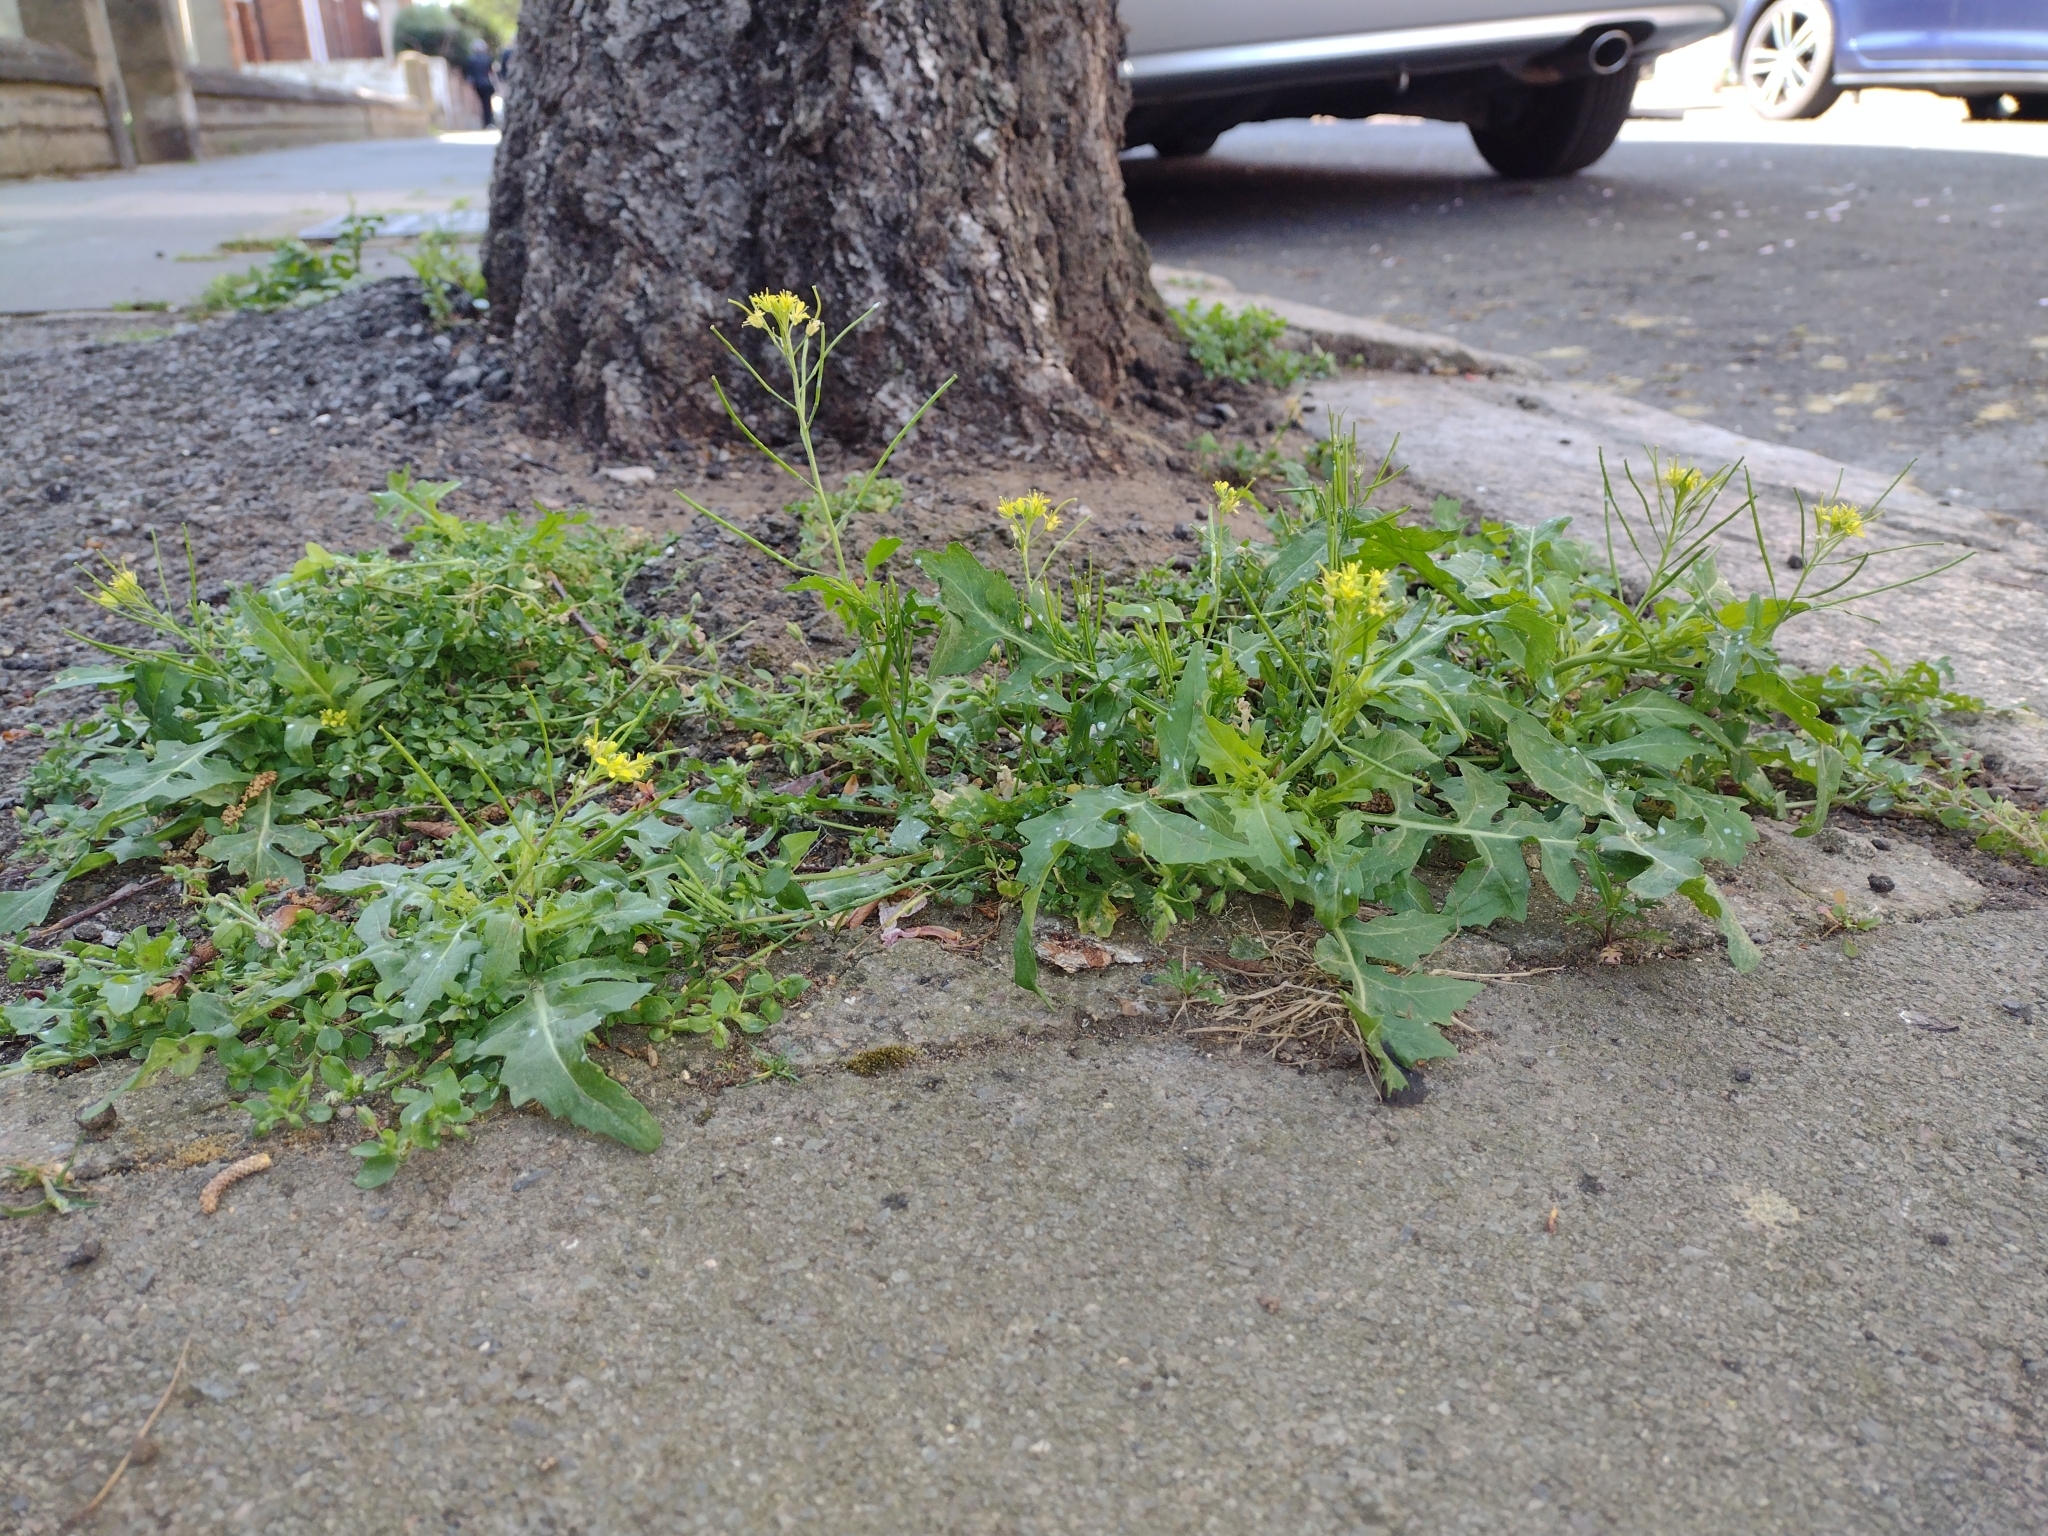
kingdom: Plantae
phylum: Tracheophyta
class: Magnoliopsida
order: Brassicales
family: Brassicaceae
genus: Sisymbrium
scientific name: Sisymbrium irio
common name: London rocket
